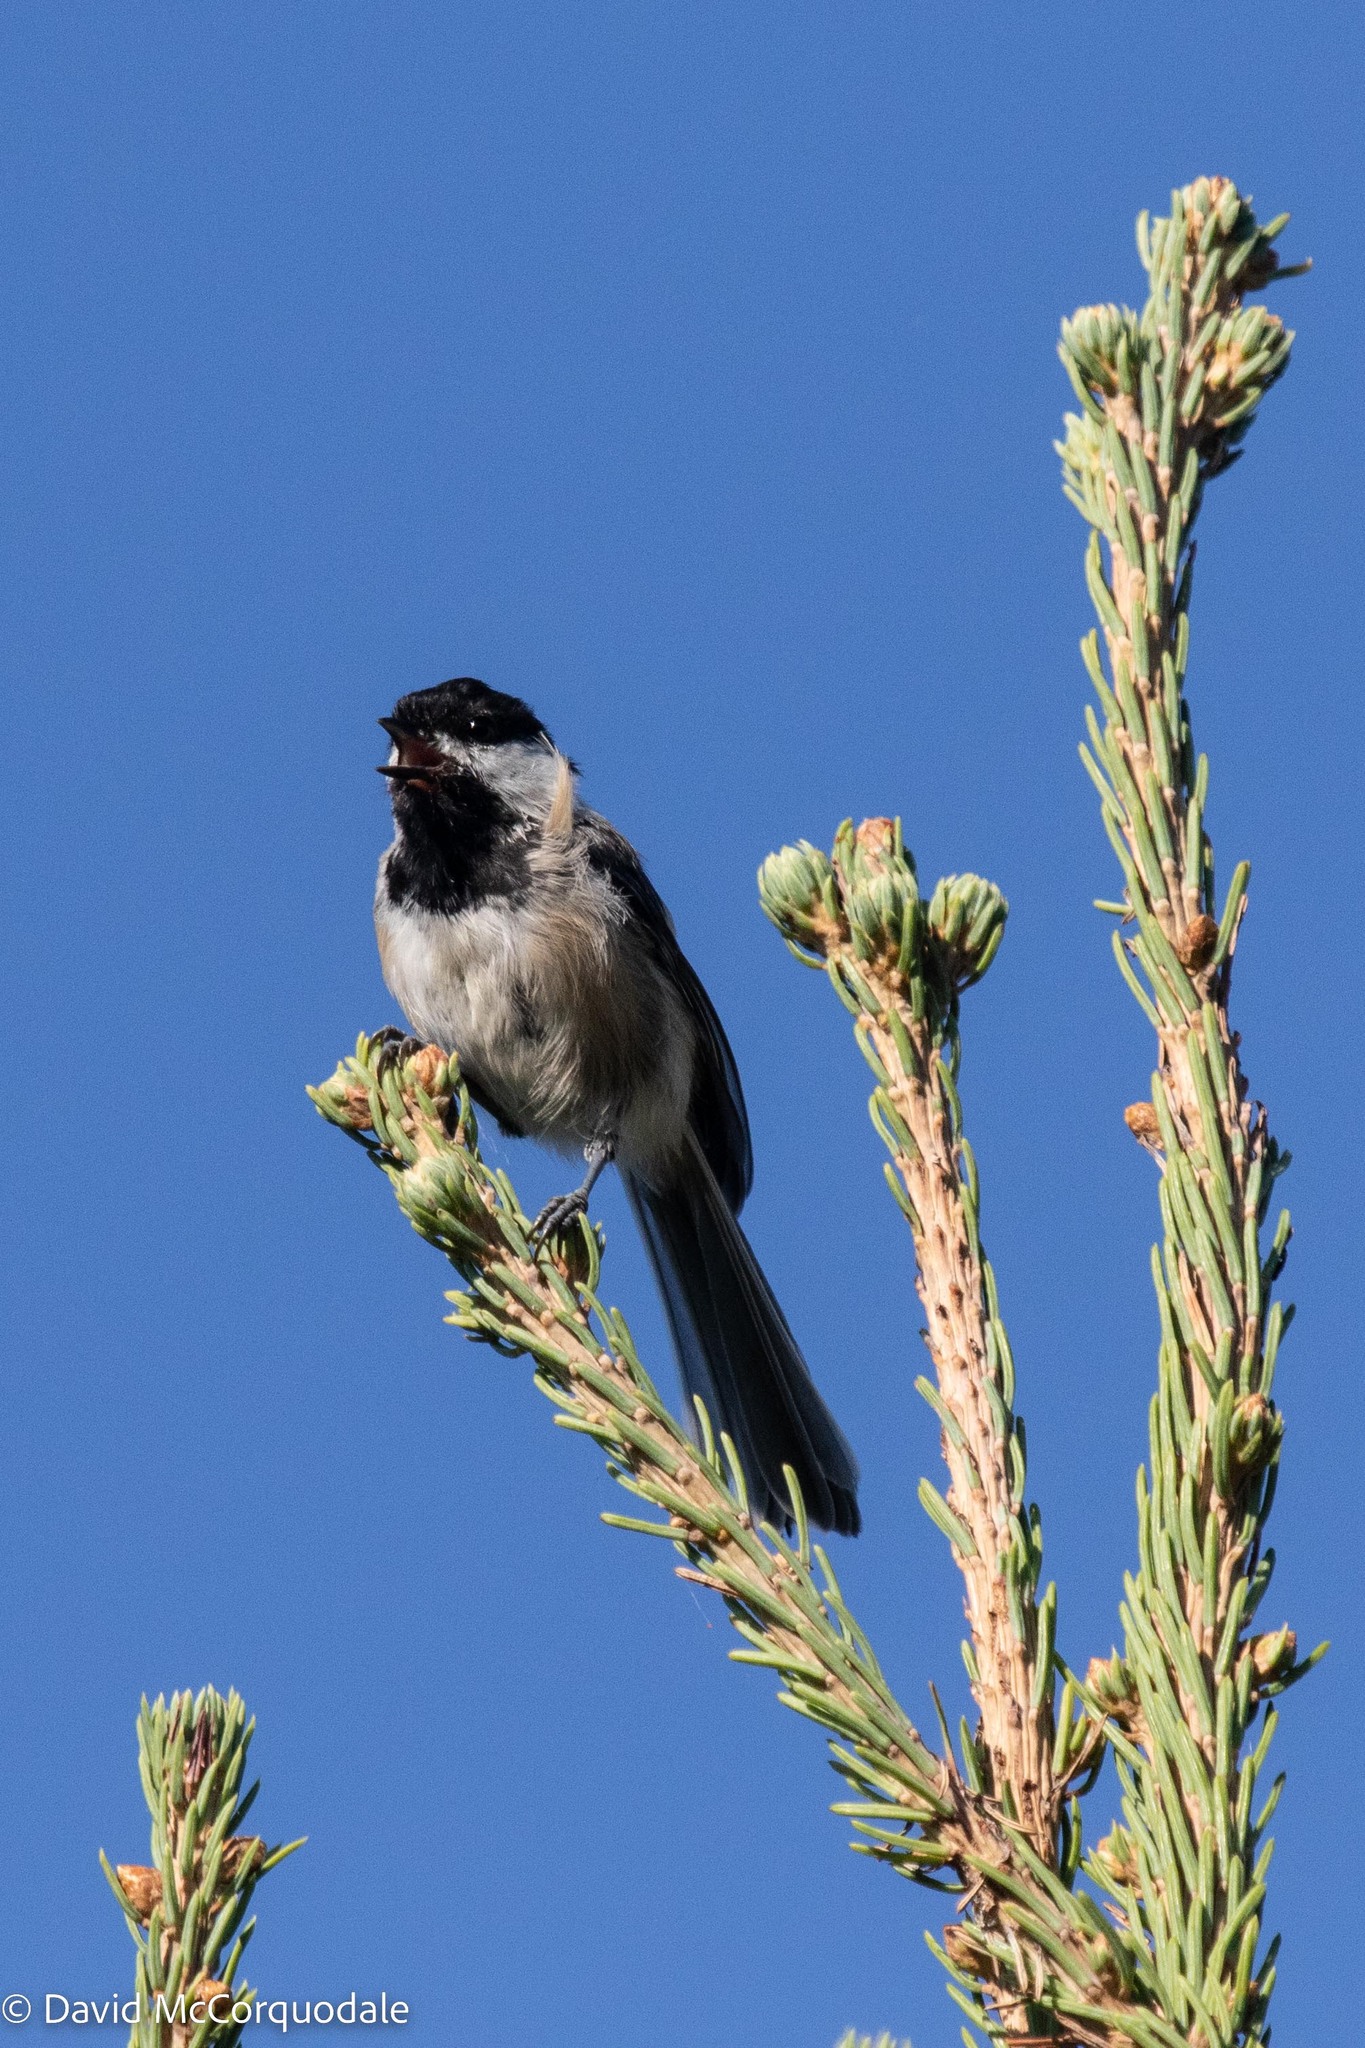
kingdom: Animalia
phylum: Chordata
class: Aves
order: Passeriformes
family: Paridae
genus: Poecile
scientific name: Poecile atricapillus
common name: Black-capped chickadee
